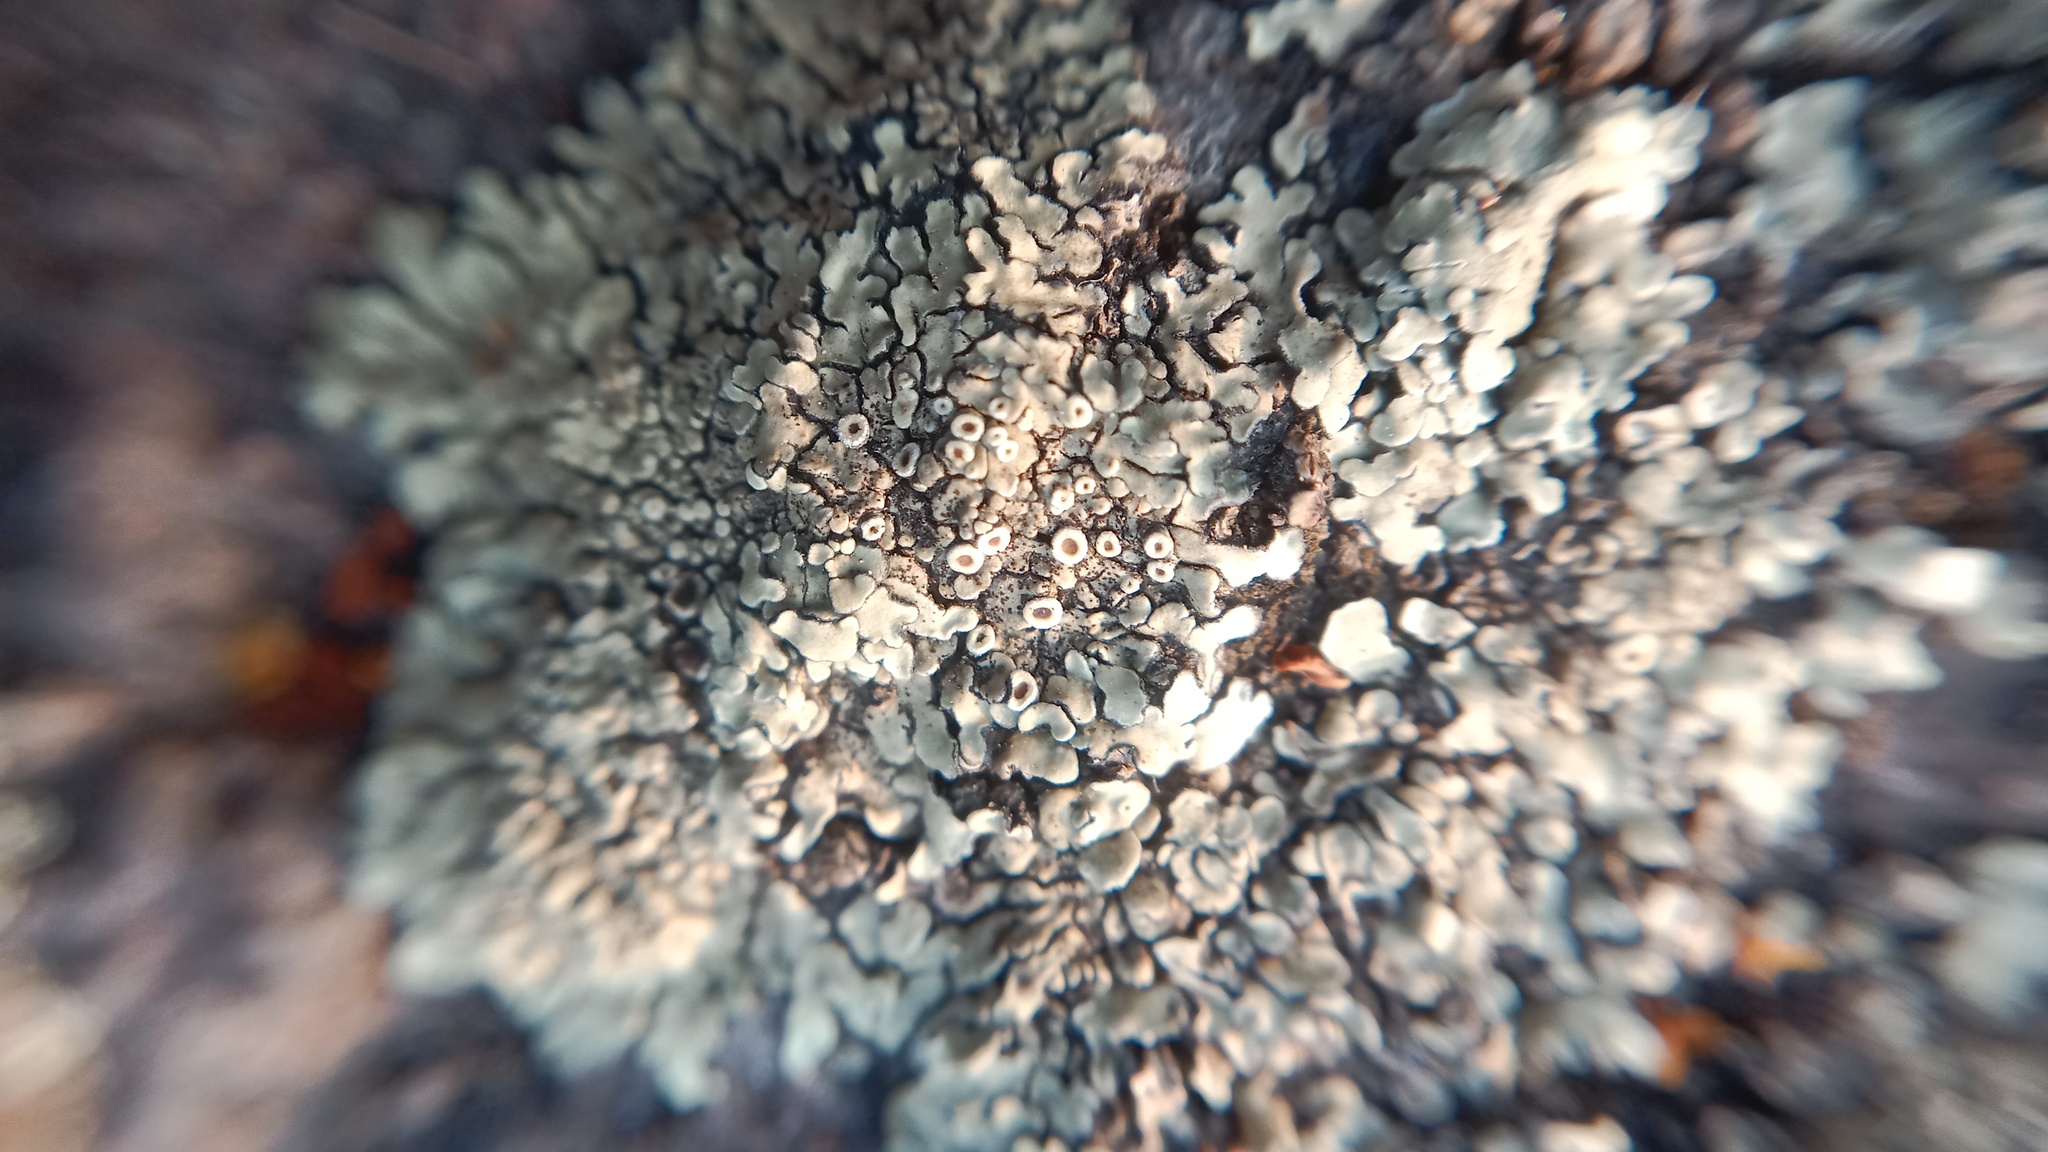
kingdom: Fungi
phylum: Ascomycota
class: Lecanoromycetes
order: Lecanorales
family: Lecanoraceae
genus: Protoparmeliopsis
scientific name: Protoparmeliopsis muralis
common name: Stonewall rim lichen
